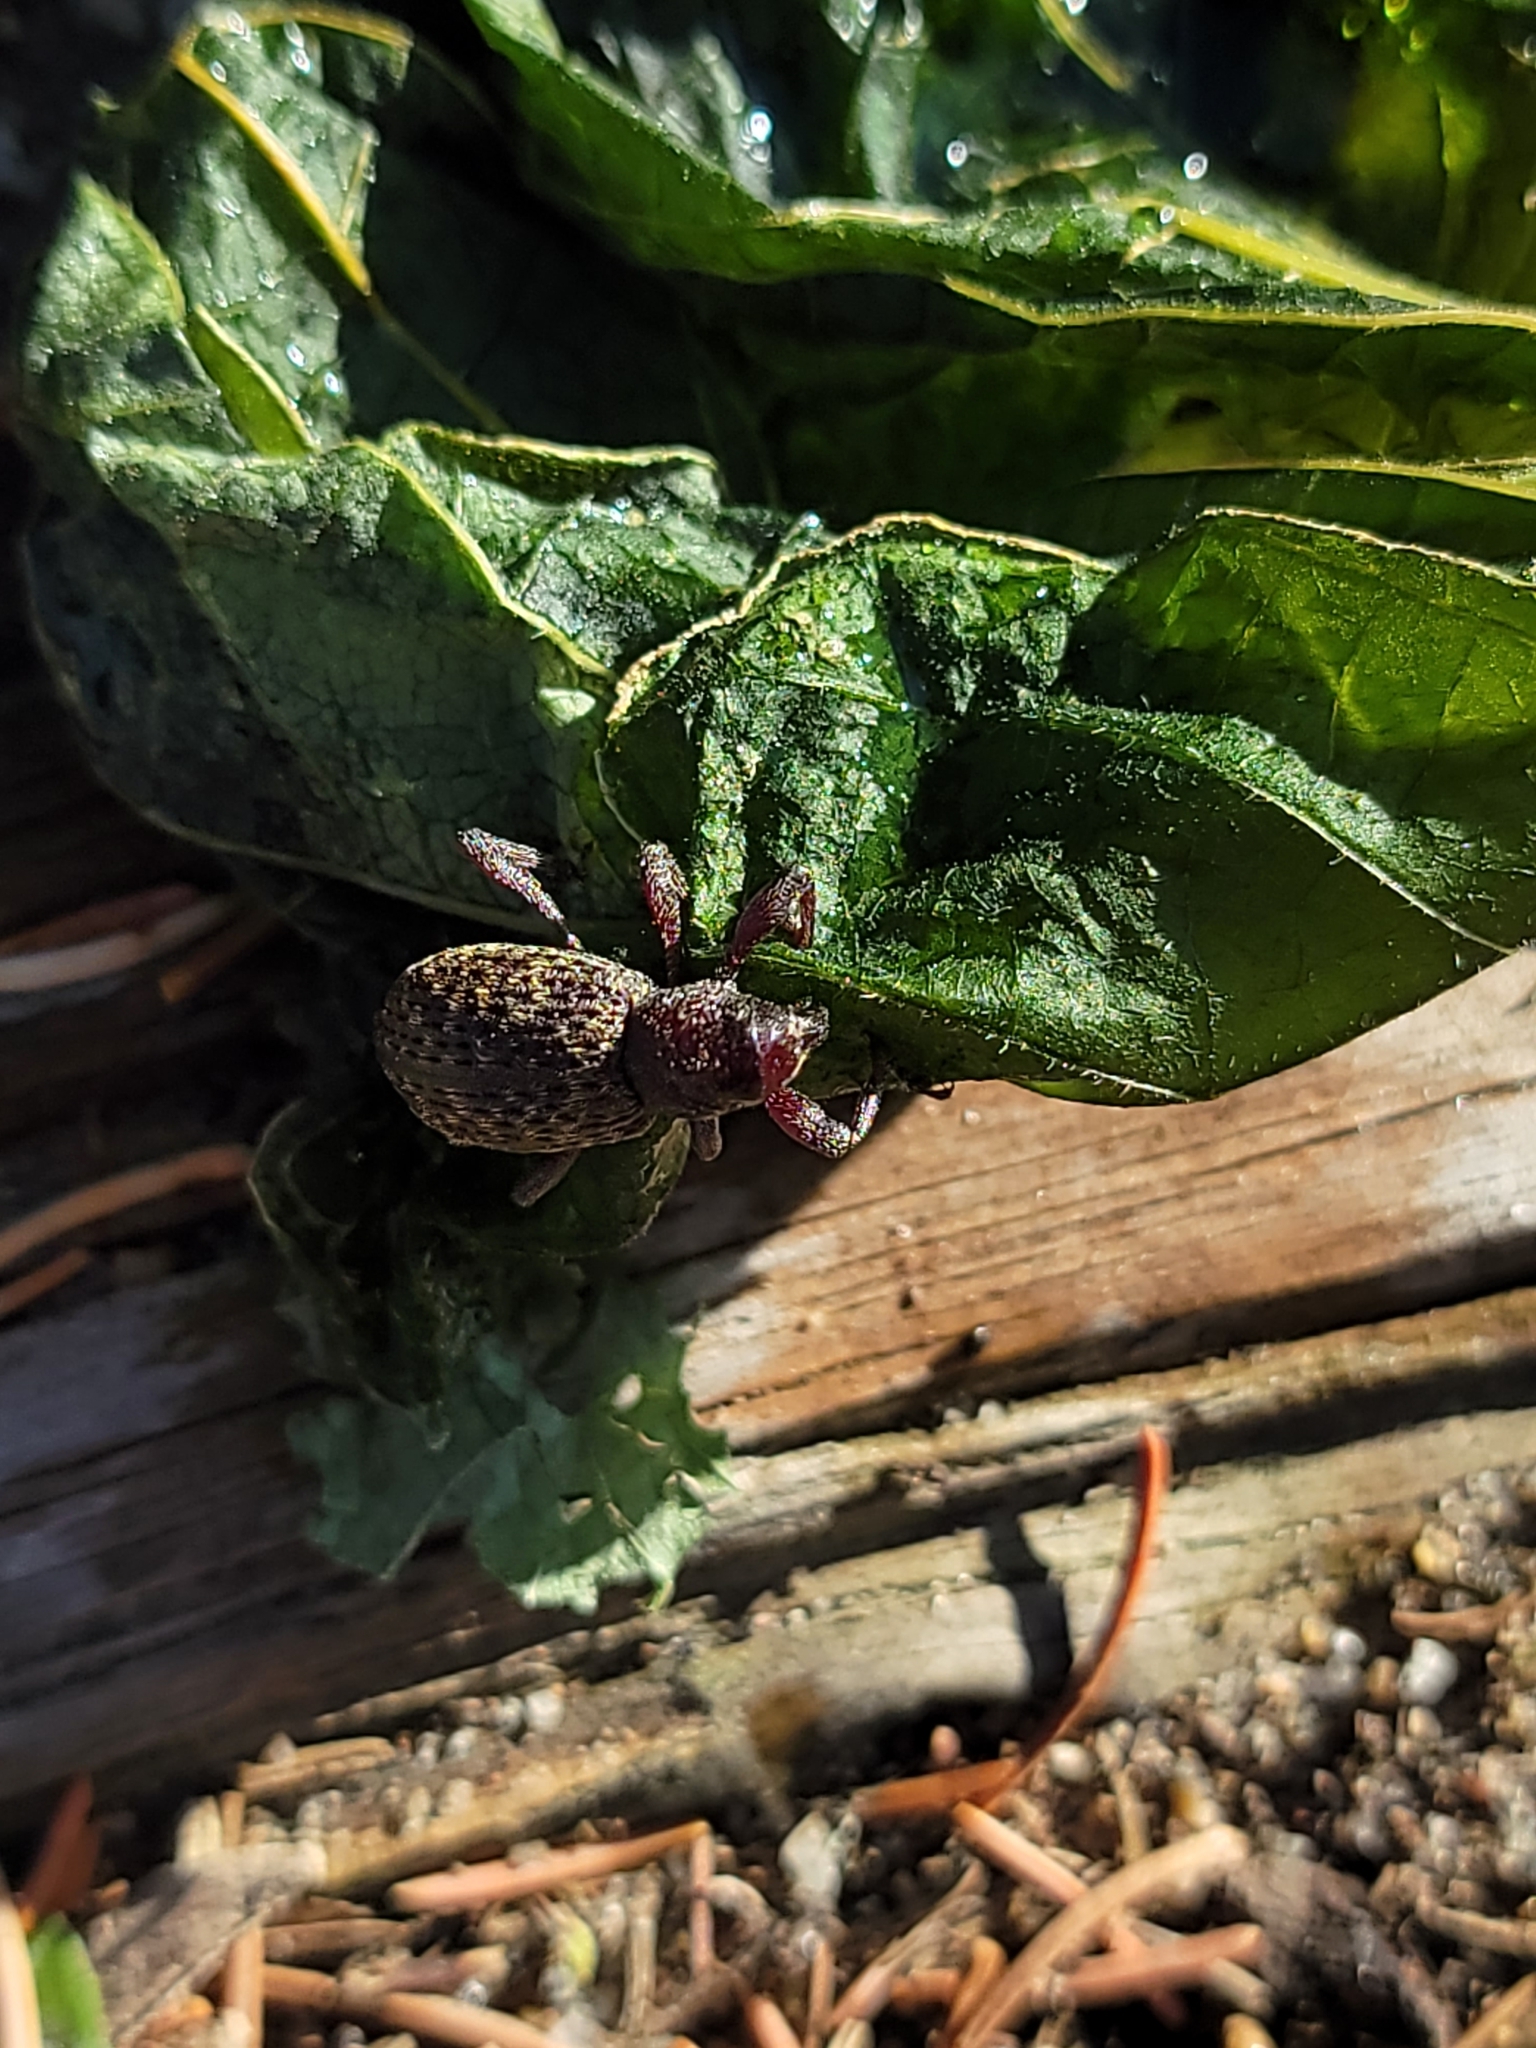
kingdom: Animalia
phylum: Arthropoda
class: Insecta
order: Coleoptera
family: Curculionidae
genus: Hylobius
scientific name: Hylobius pinicola
